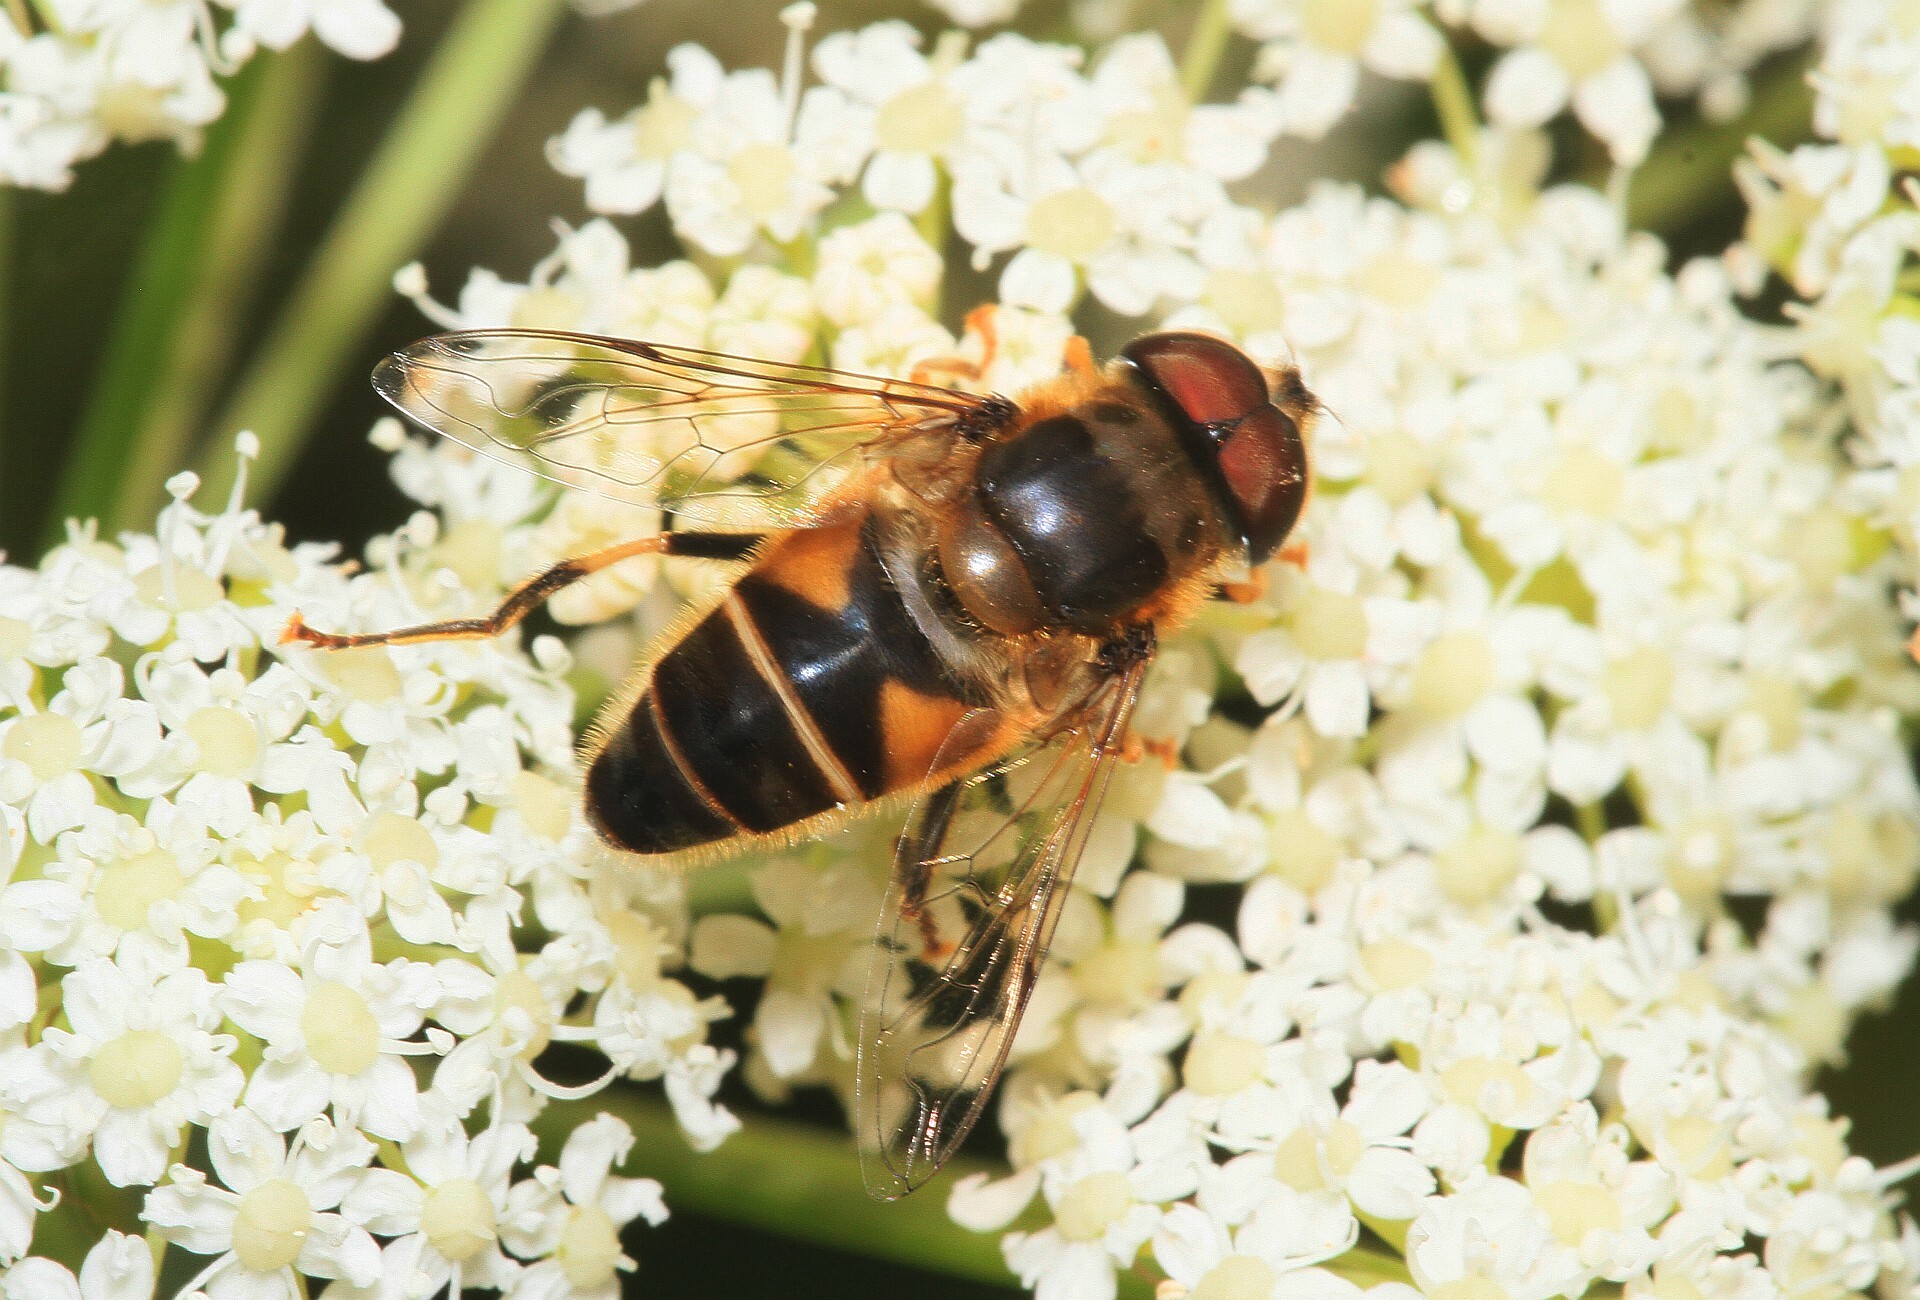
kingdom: Animalia
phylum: Arthropoda
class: Insecta
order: Diptera
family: Syrphidae
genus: Eristalis
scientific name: Eristalis pertinax
